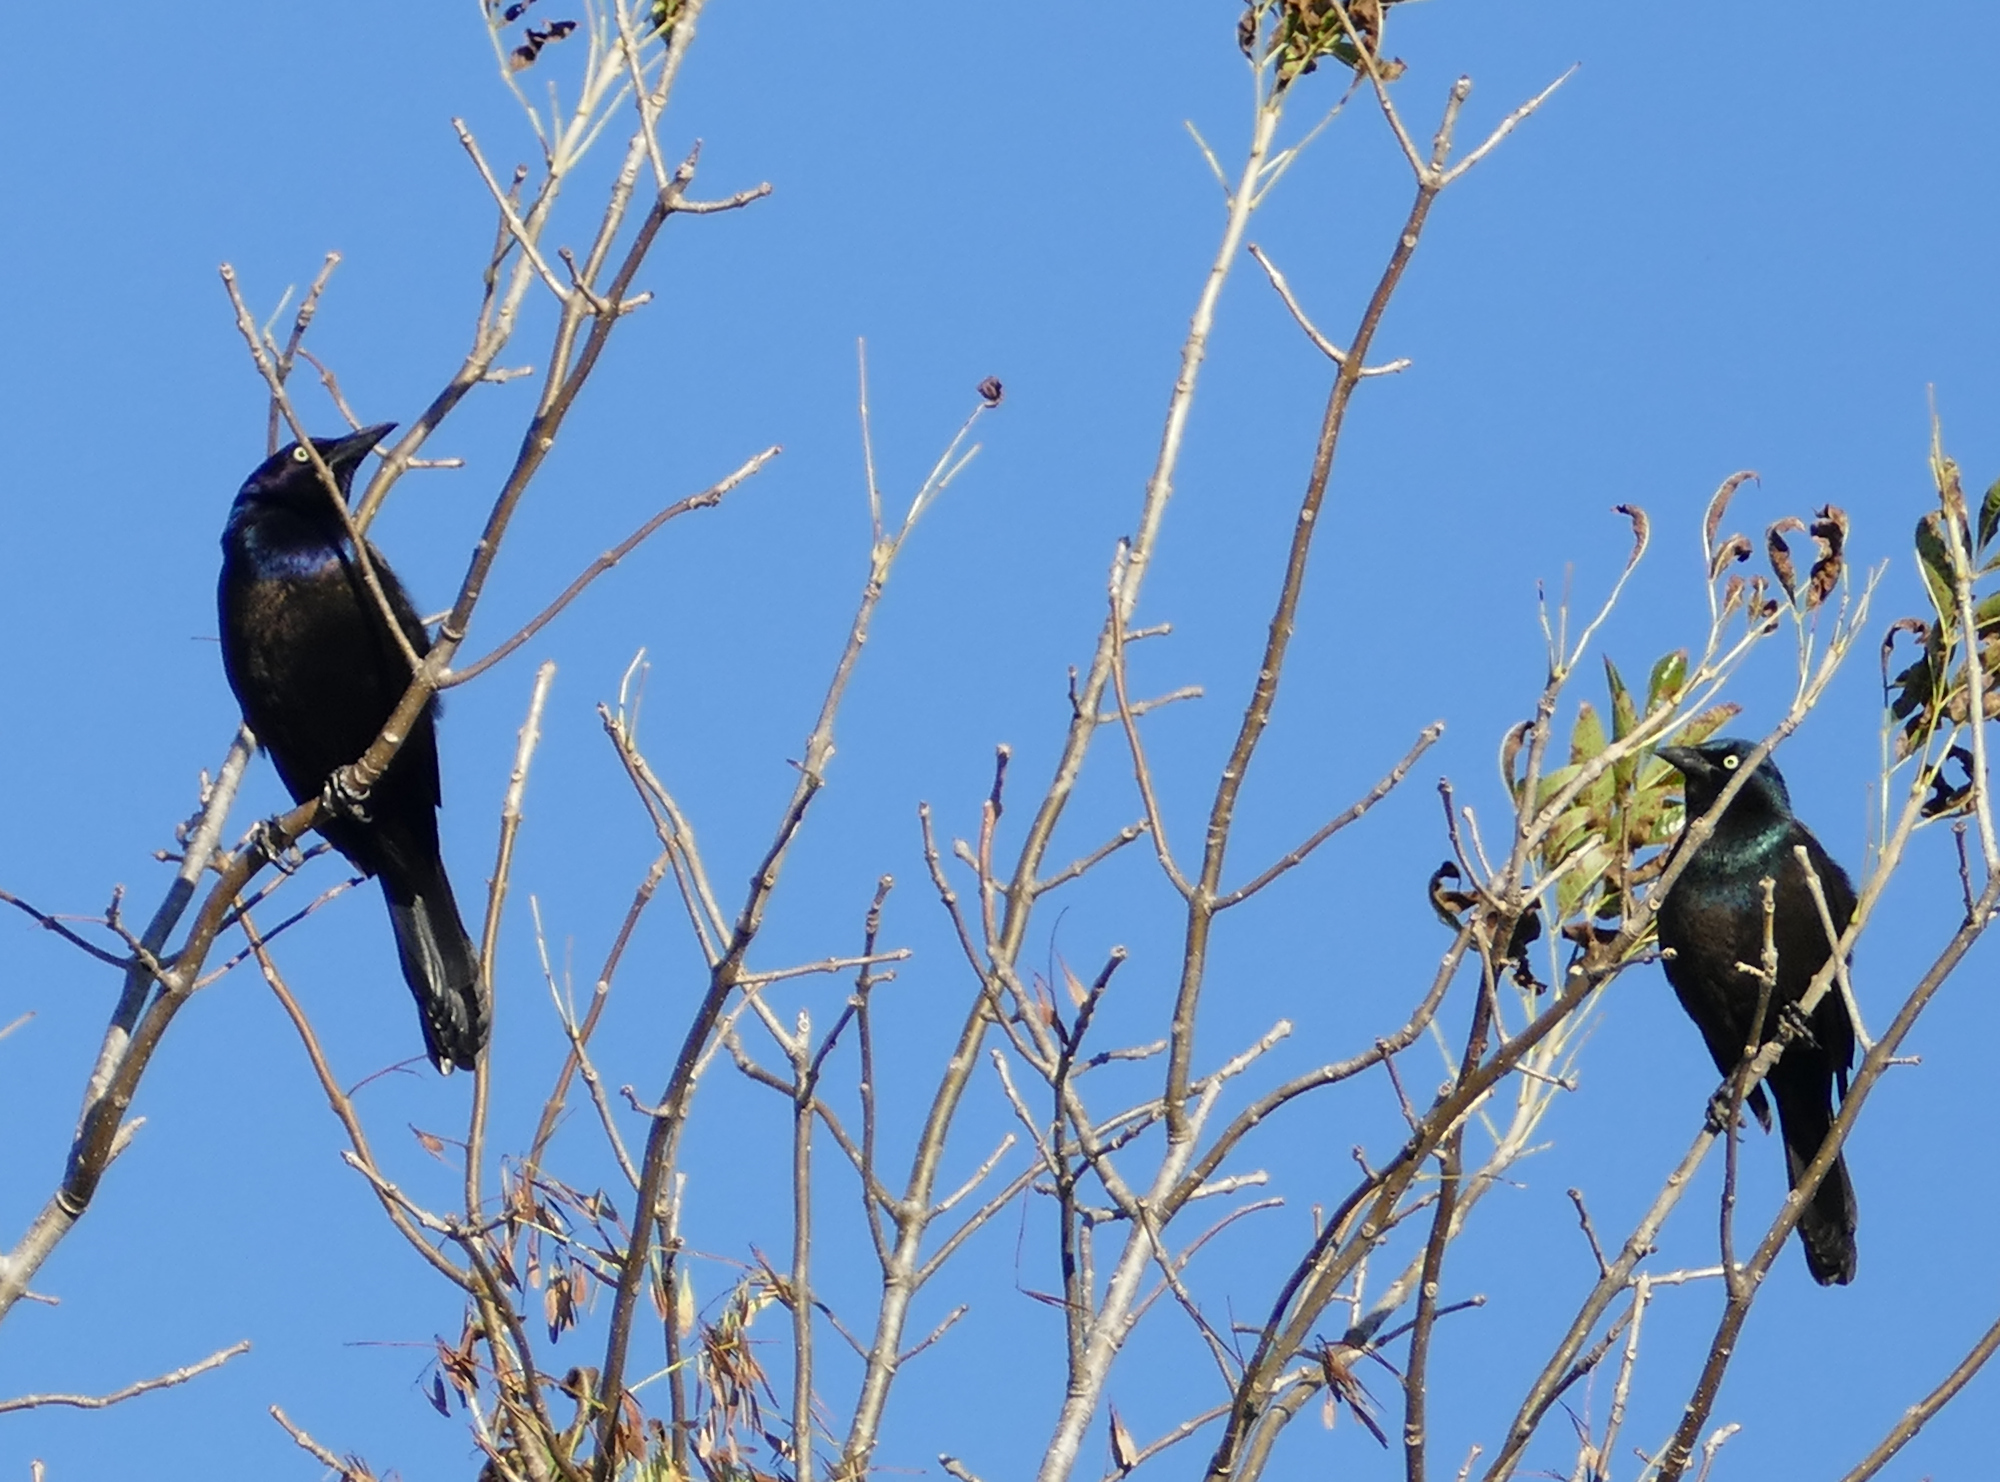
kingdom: Animalia
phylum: Chordata
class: Aves
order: Passeriformes
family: Icteridae
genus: Quiscalus
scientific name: Quiscalus quiscula
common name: Common grackle
